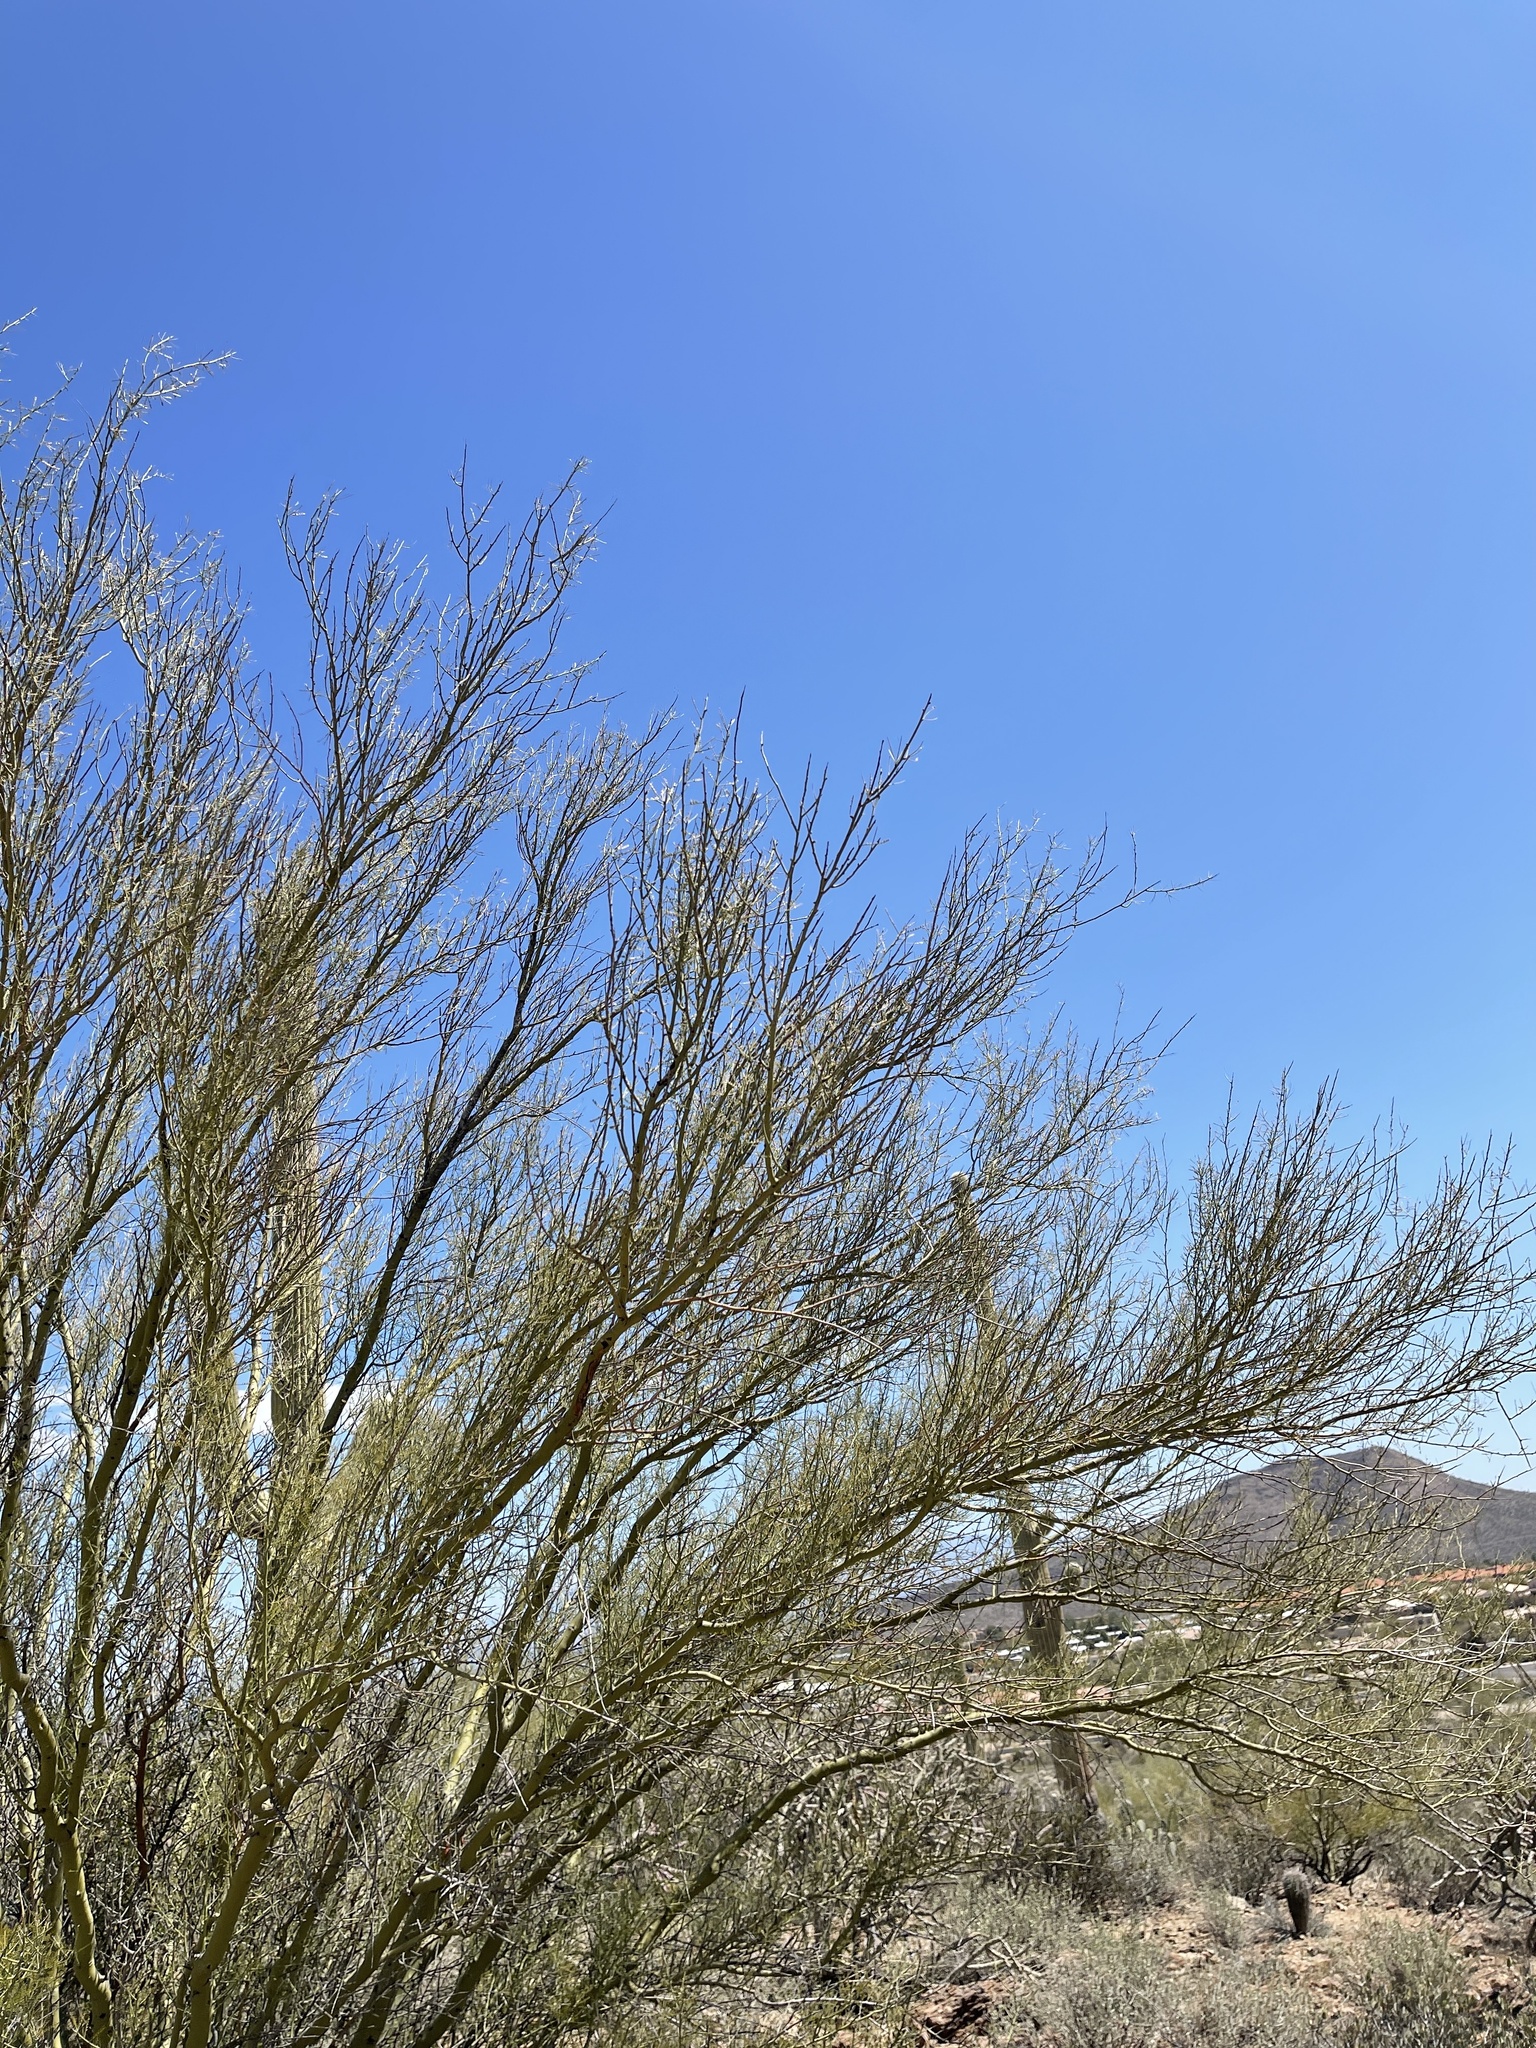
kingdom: Plantae
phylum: Tracheophyta
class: Magnoliopsida
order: Fabales
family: Fabaceae
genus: Parkinsonia
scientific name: Parkinsonia microphylla
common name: Yellow paloverde
